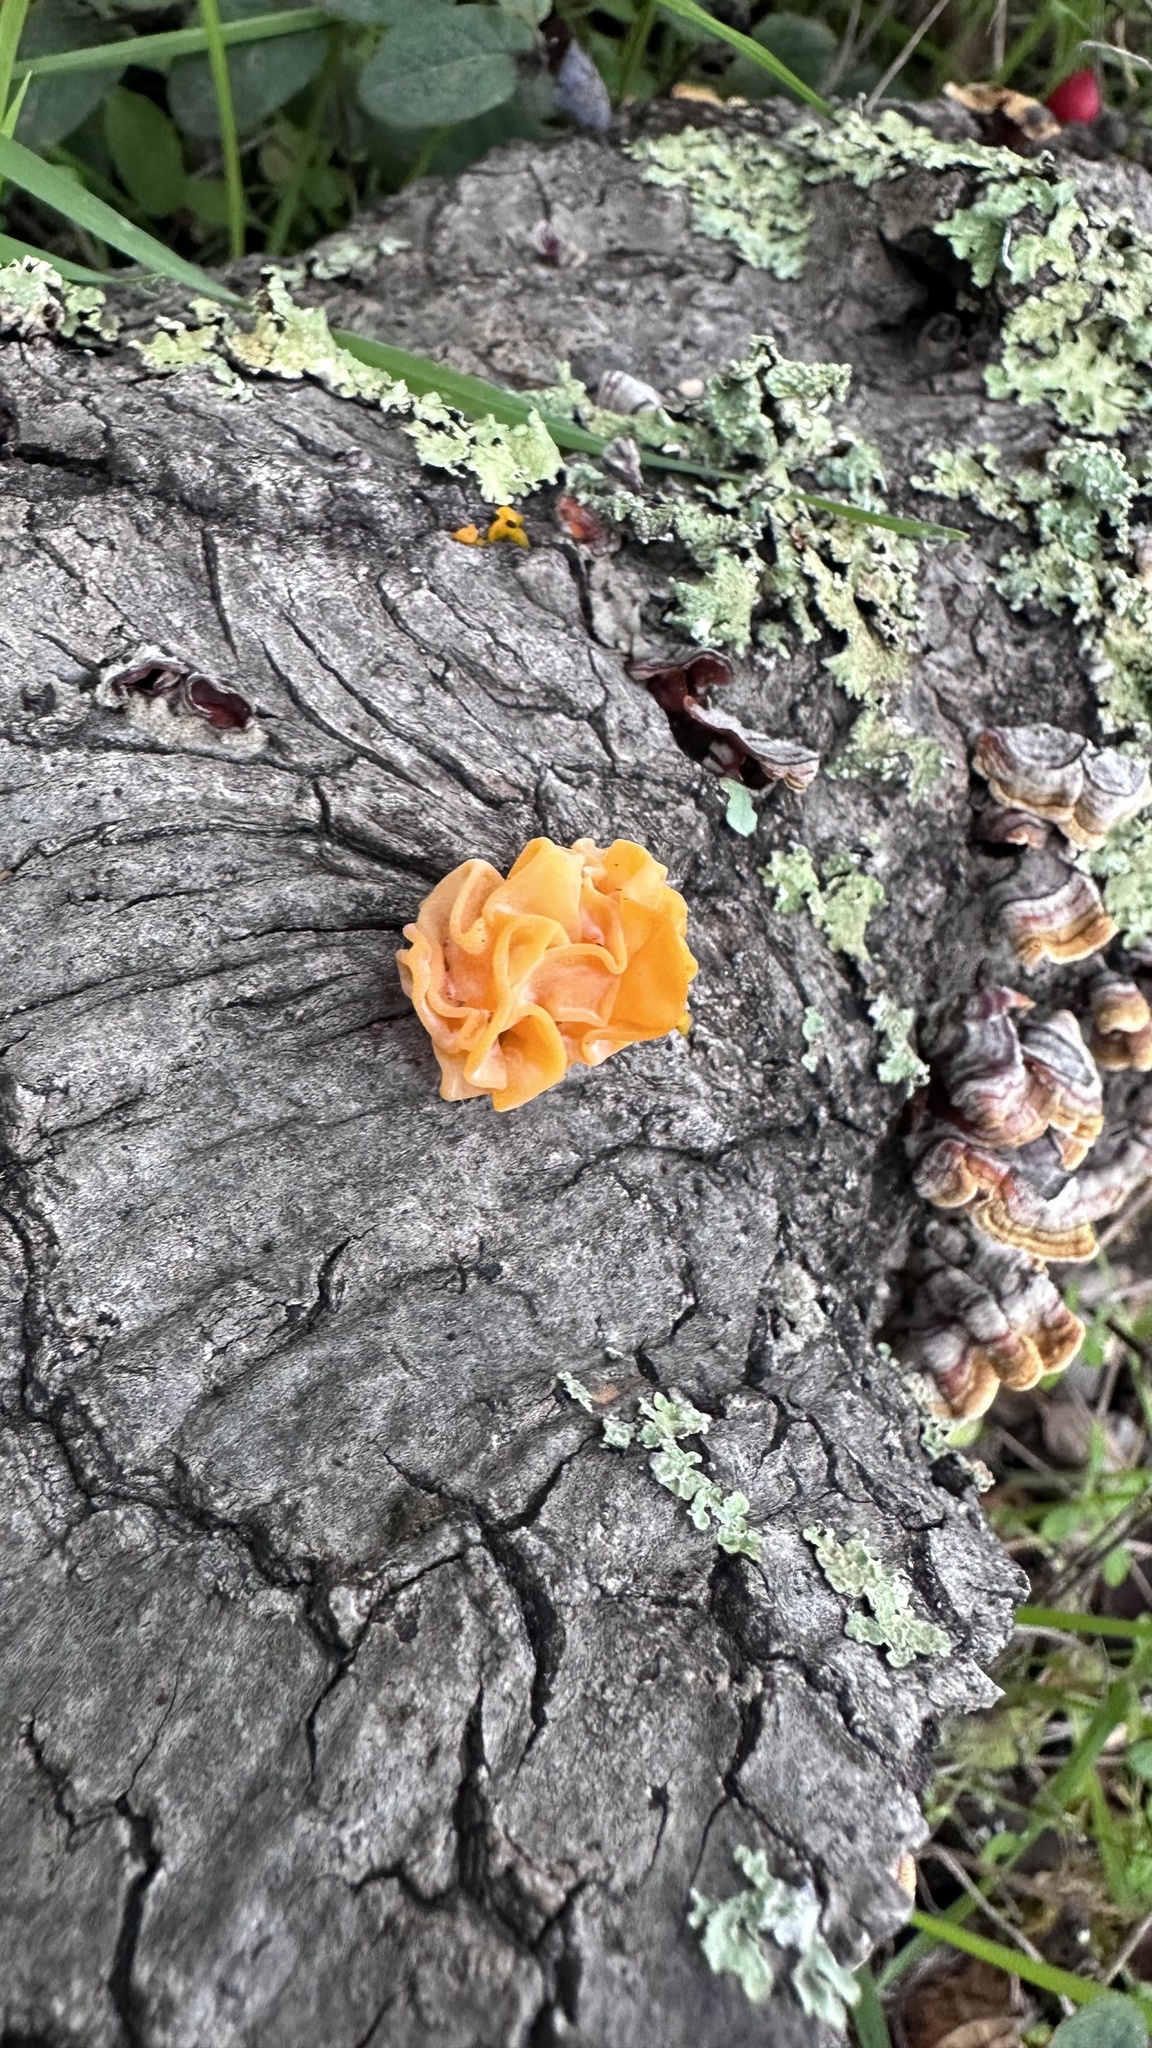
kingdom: Fungi
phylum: Basidiomycota
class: Tremellomycetes
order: Tremellales
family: Naemateliaceae
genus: Naematelia
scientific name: Naematelia aurantia
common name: Golden ear
